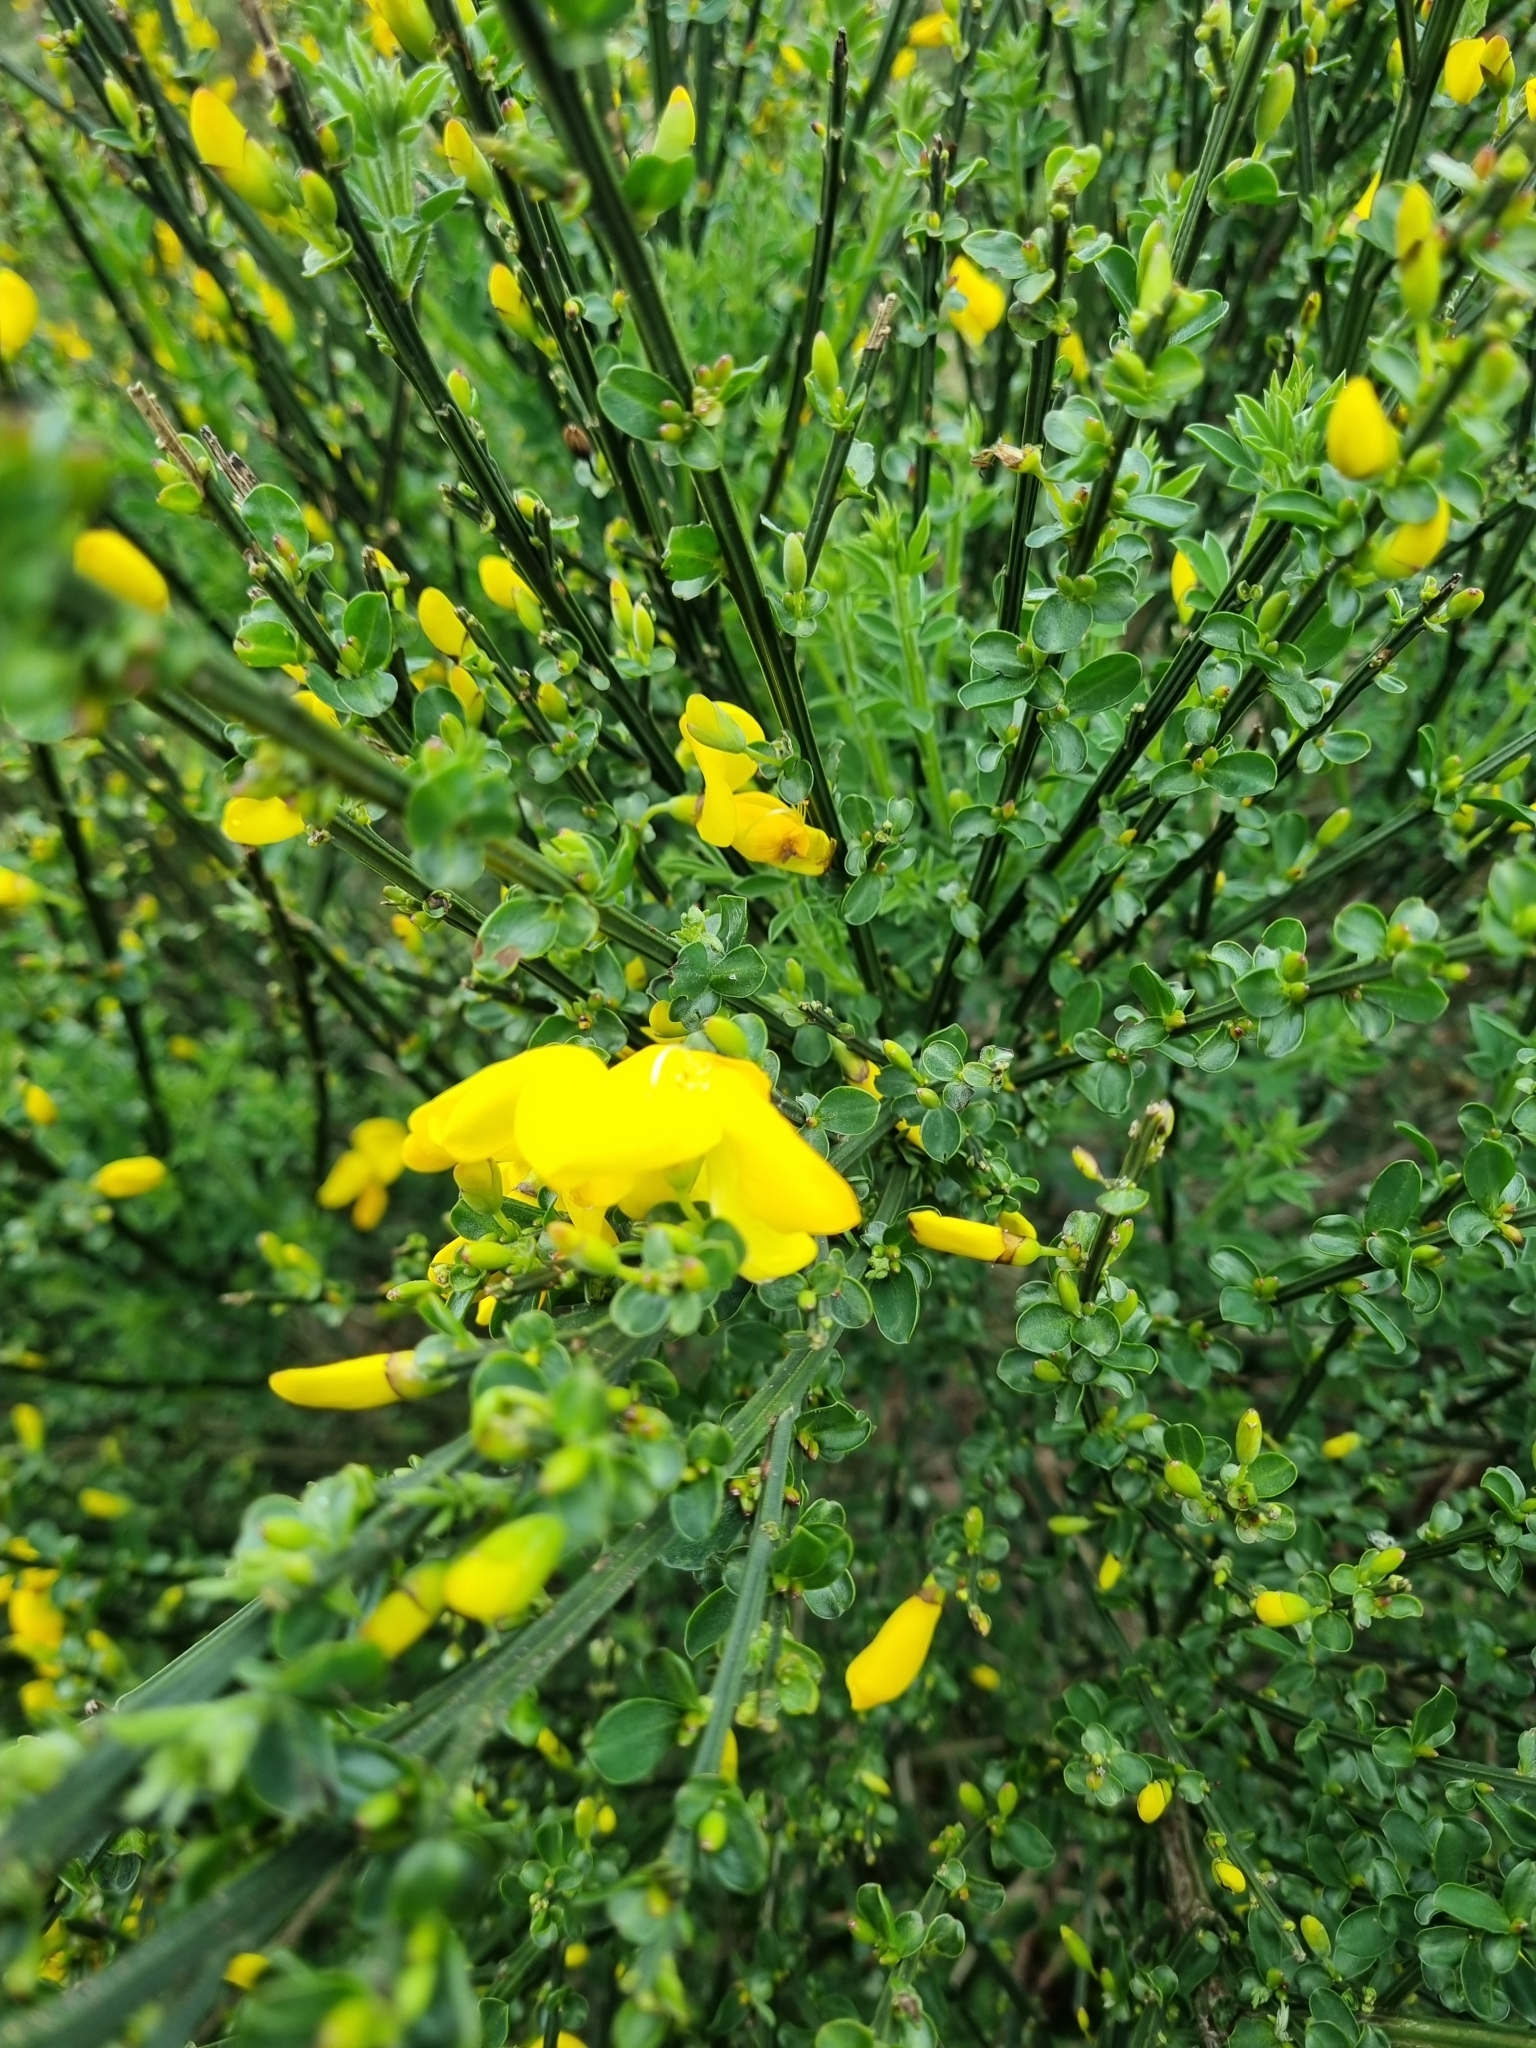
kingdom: Plantae
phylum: Tracheophyta
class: Magnoliopsida
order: Fabales
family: Fabaceae
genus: Cytisus
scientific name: Cytisus scoparius
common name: Scotch broom
